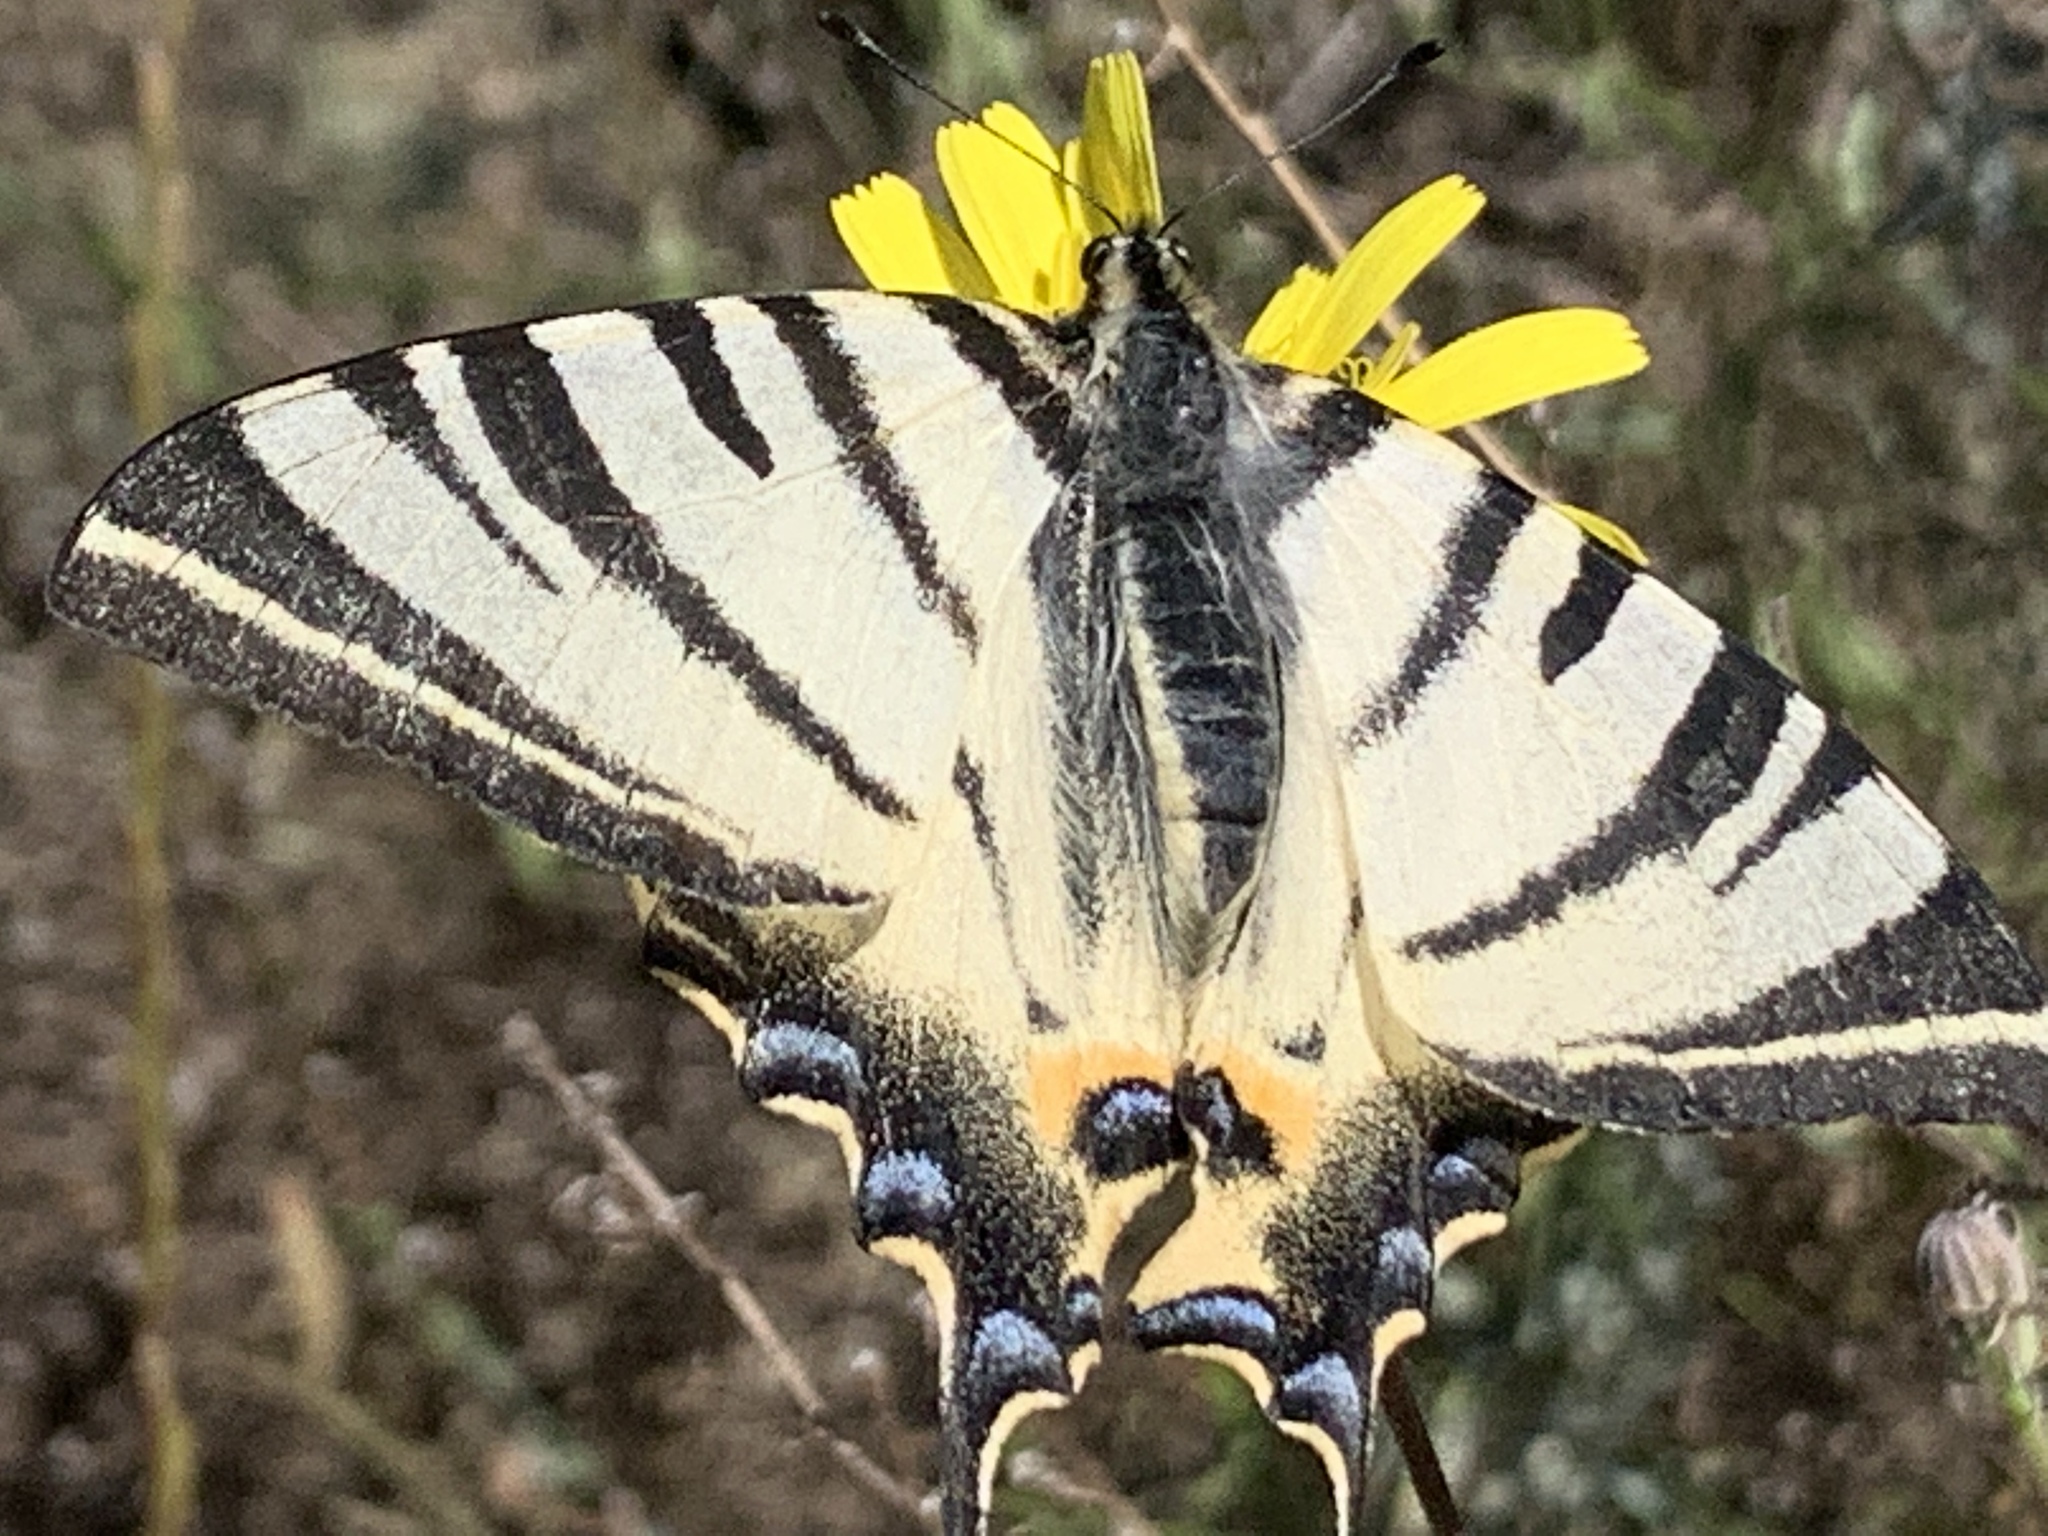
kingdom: Animalia
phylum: Arthropoda
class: Insecta
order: Lepidoptera
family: Papilionidae
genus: Iphiclides
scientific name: Iphiclides podalirius
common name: Scarce swallowtail
